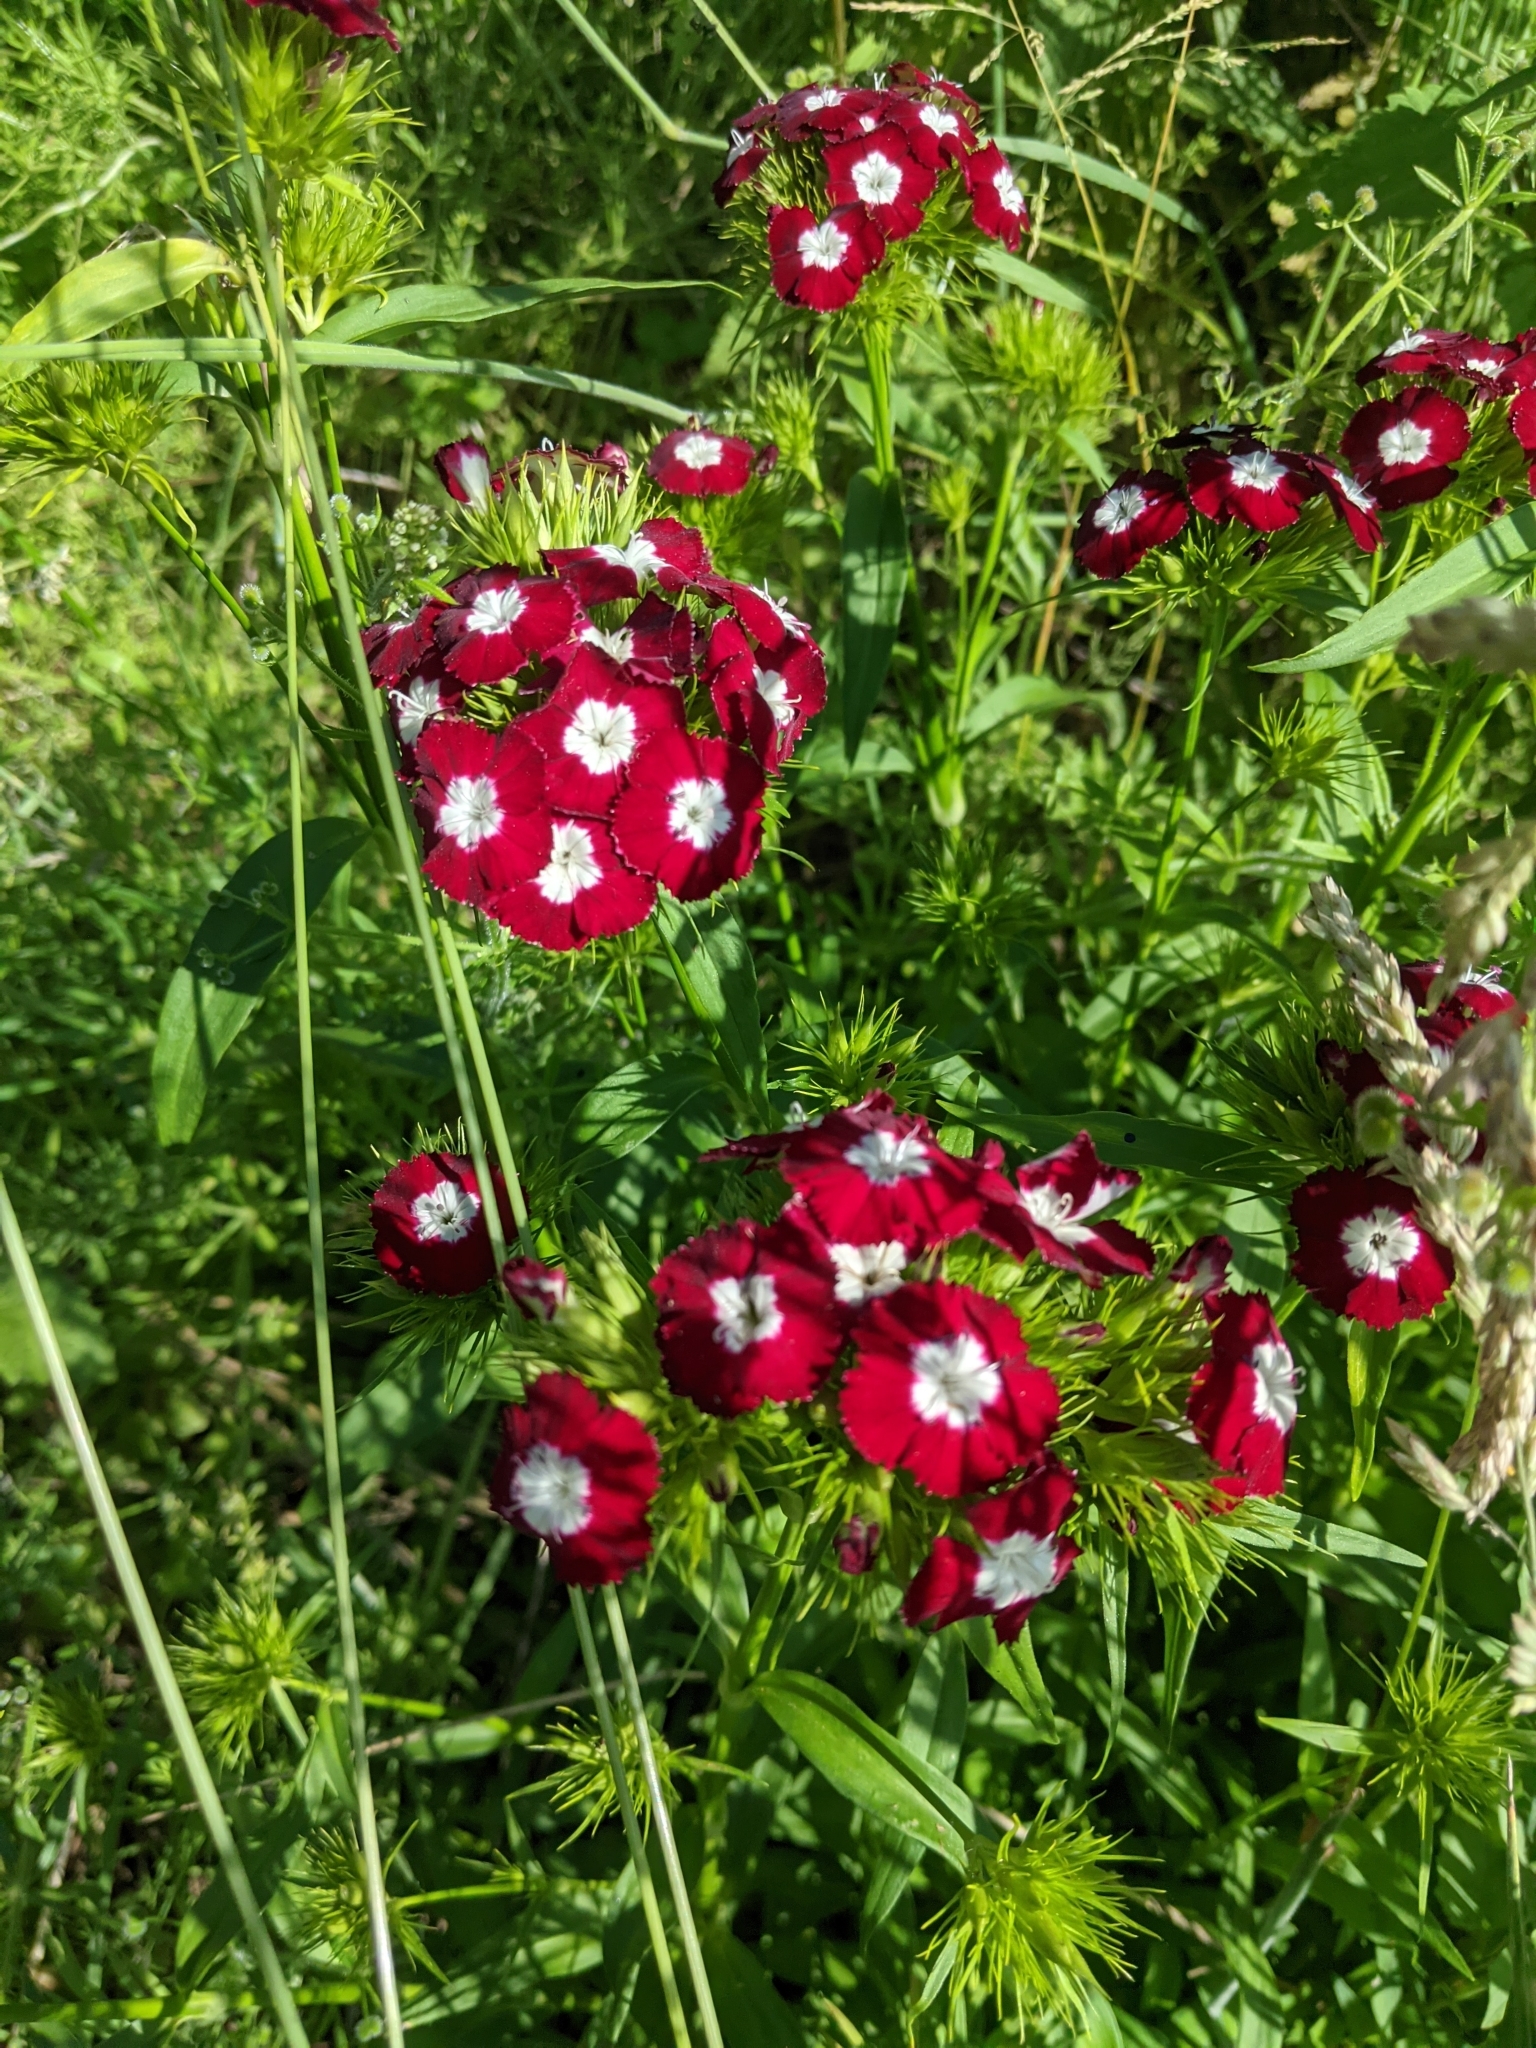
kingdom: Plantae
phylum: Tracheophyta
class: Magnoliopsida
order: Caryophyllales
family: Caryophyllaceae
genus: Dianthus
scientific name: Dianthus barbatus
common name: Sweet-william
